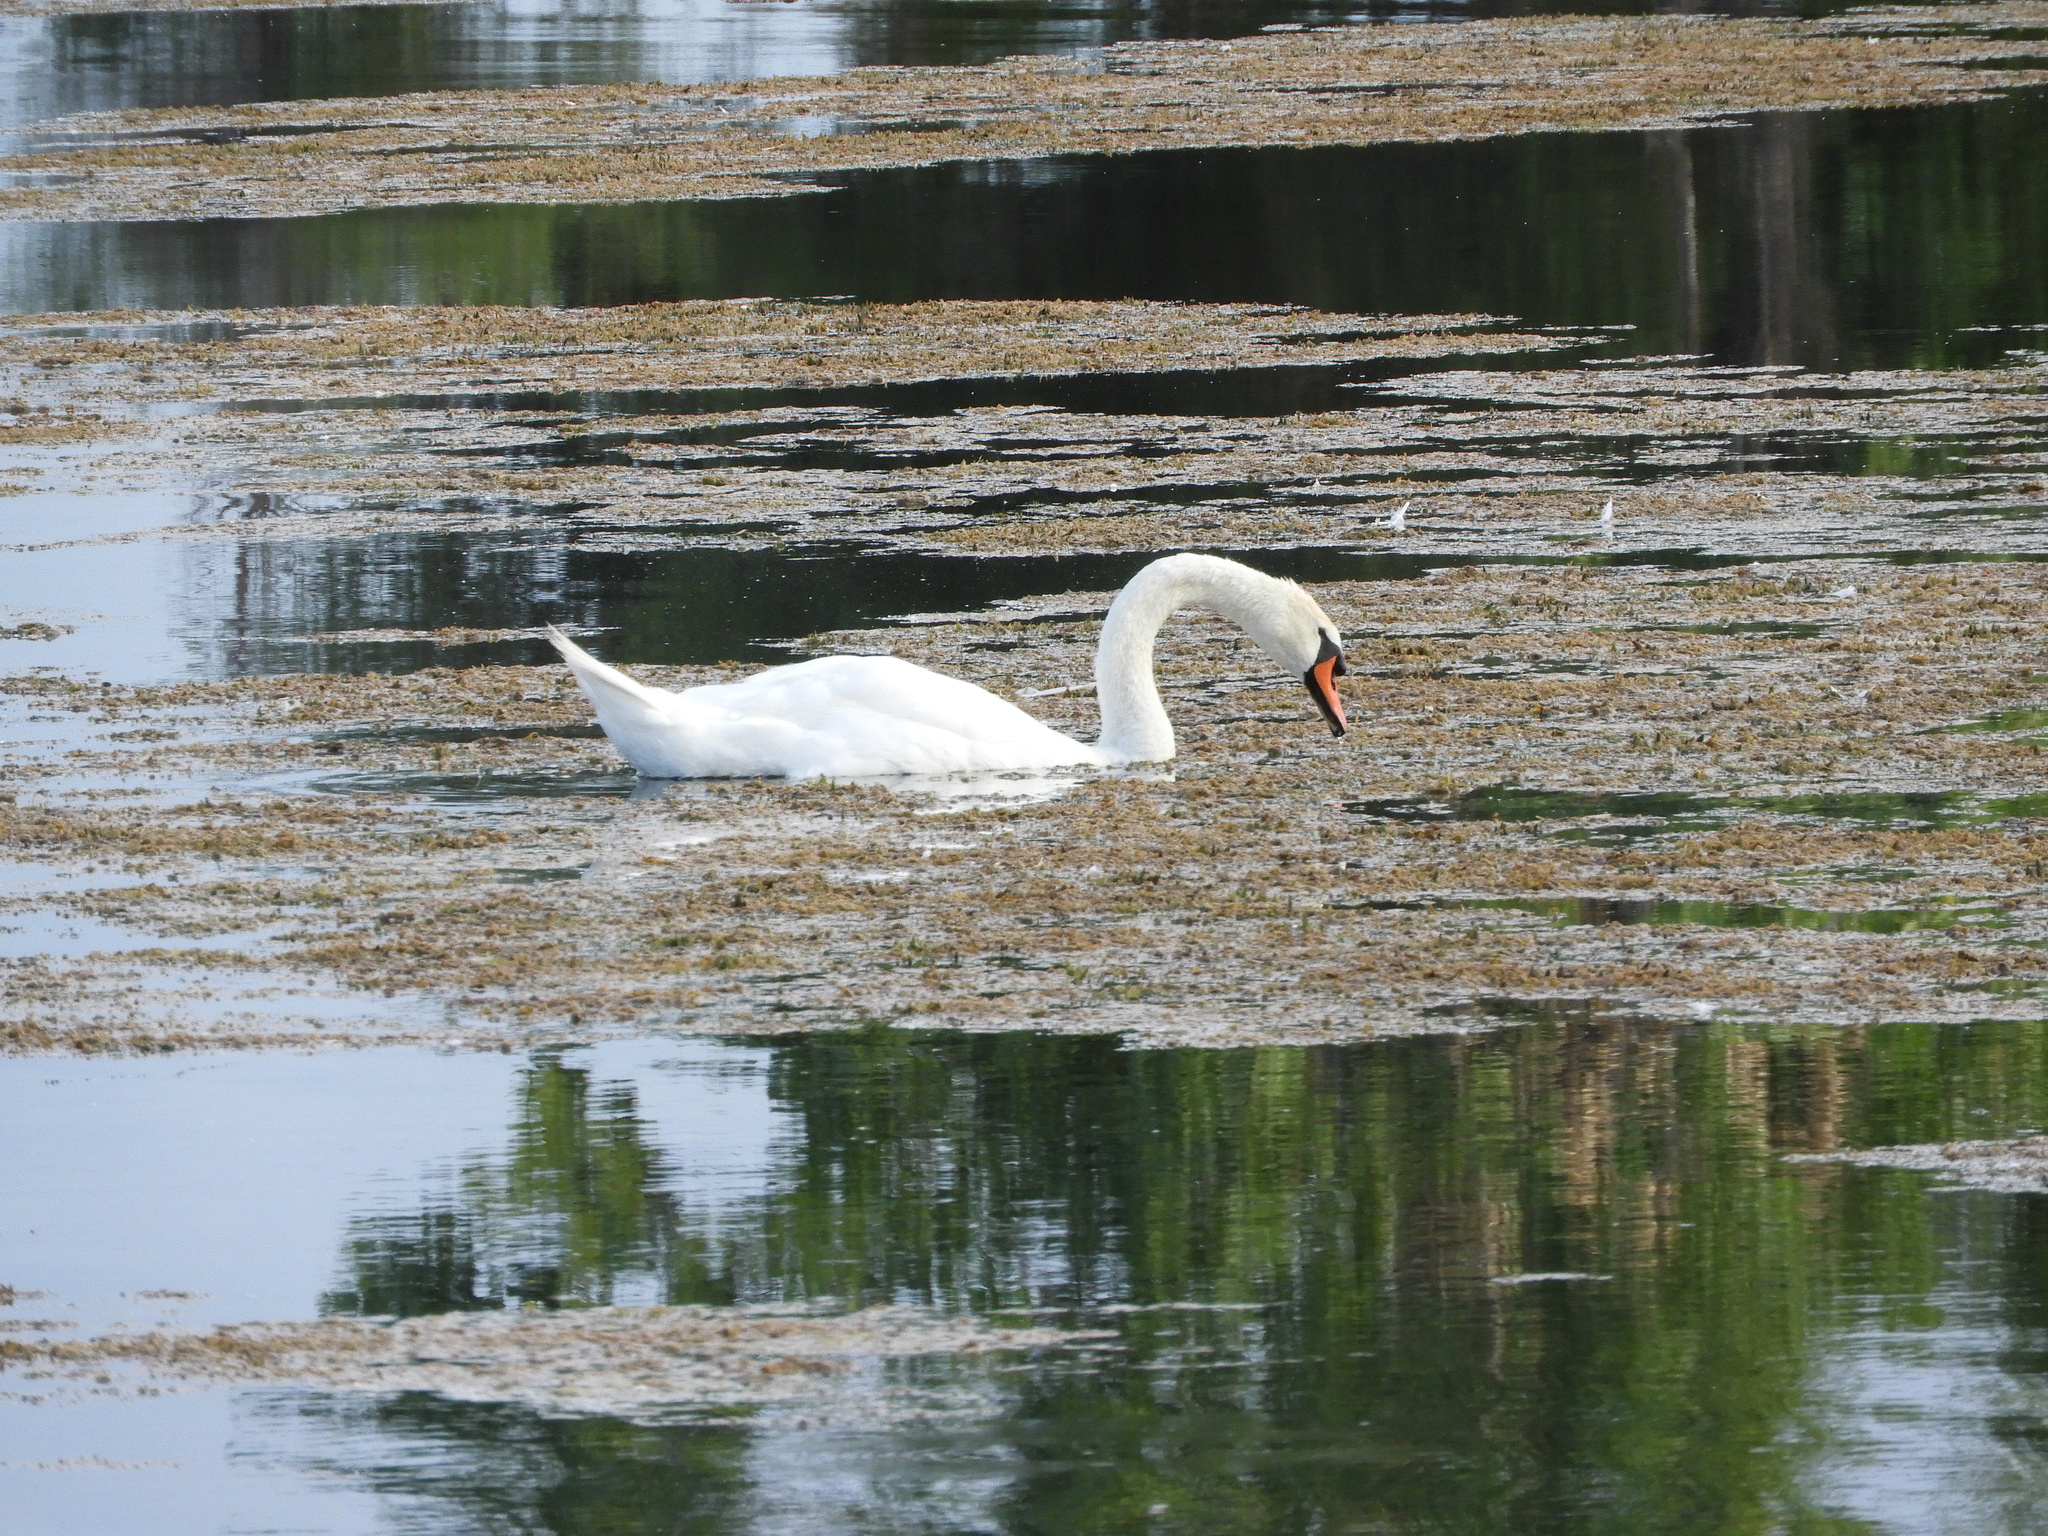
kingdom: Animalia
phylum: Chordata
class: Aves
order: Anseriformes
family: Anatidae
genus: Cygnus
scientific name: Cygnus olor
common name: Mute swan
